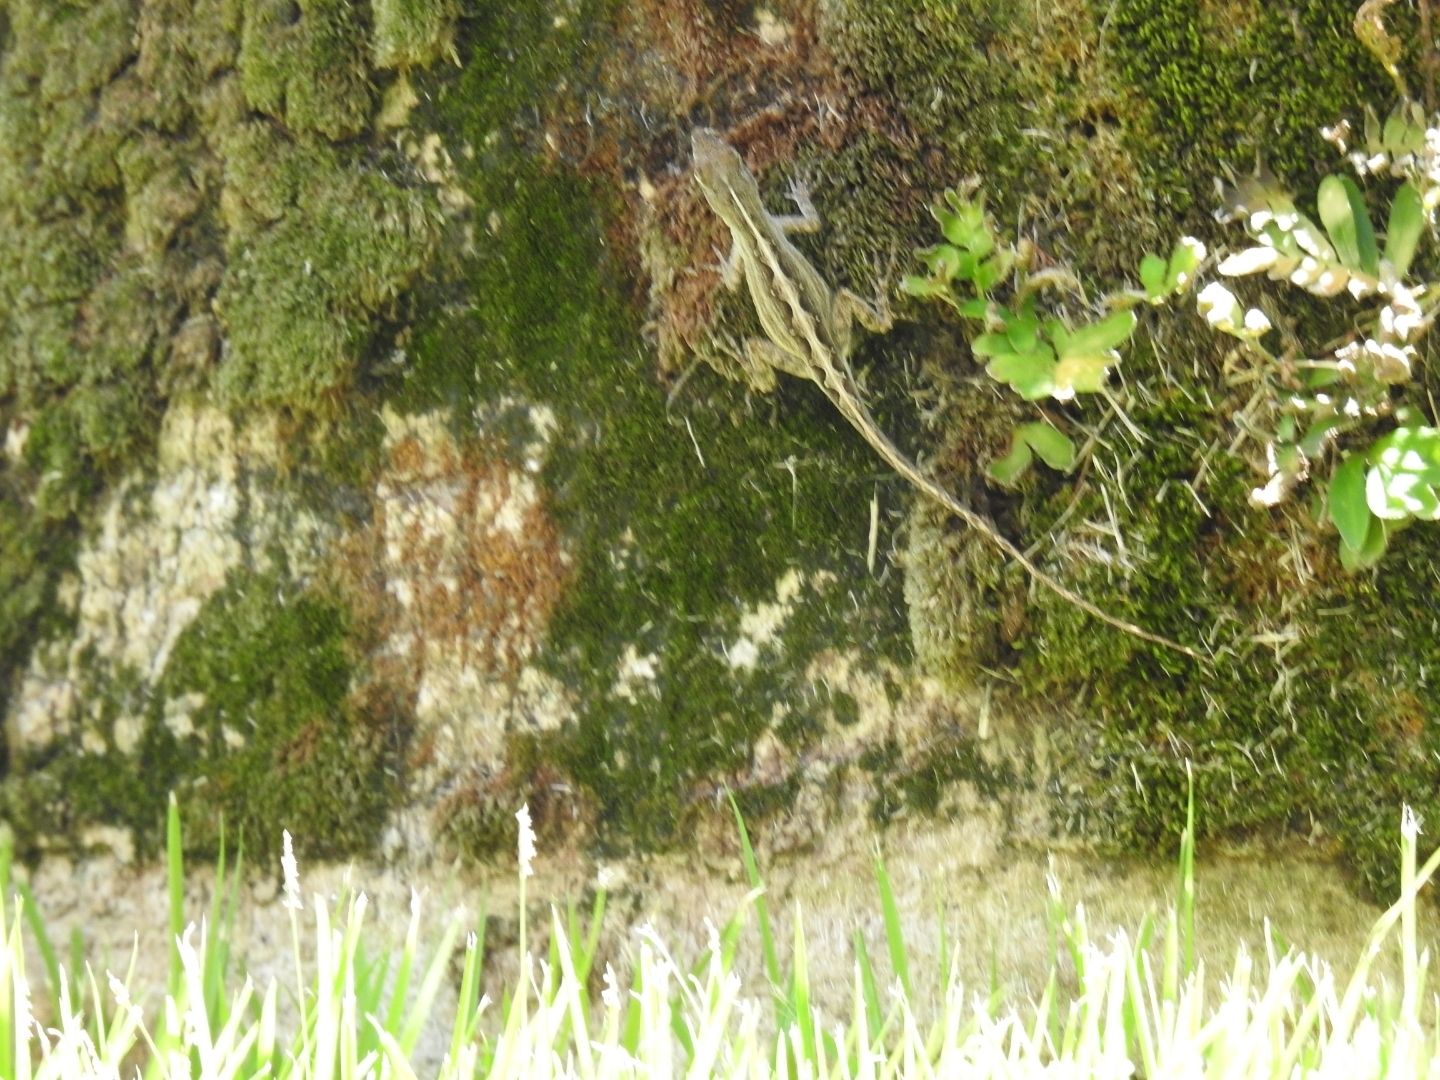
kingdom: Animalia
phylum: Chordata
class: Squamata
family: Dactyloidae
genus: Anolis
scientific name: Anolis sagrei
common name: Brown anole
